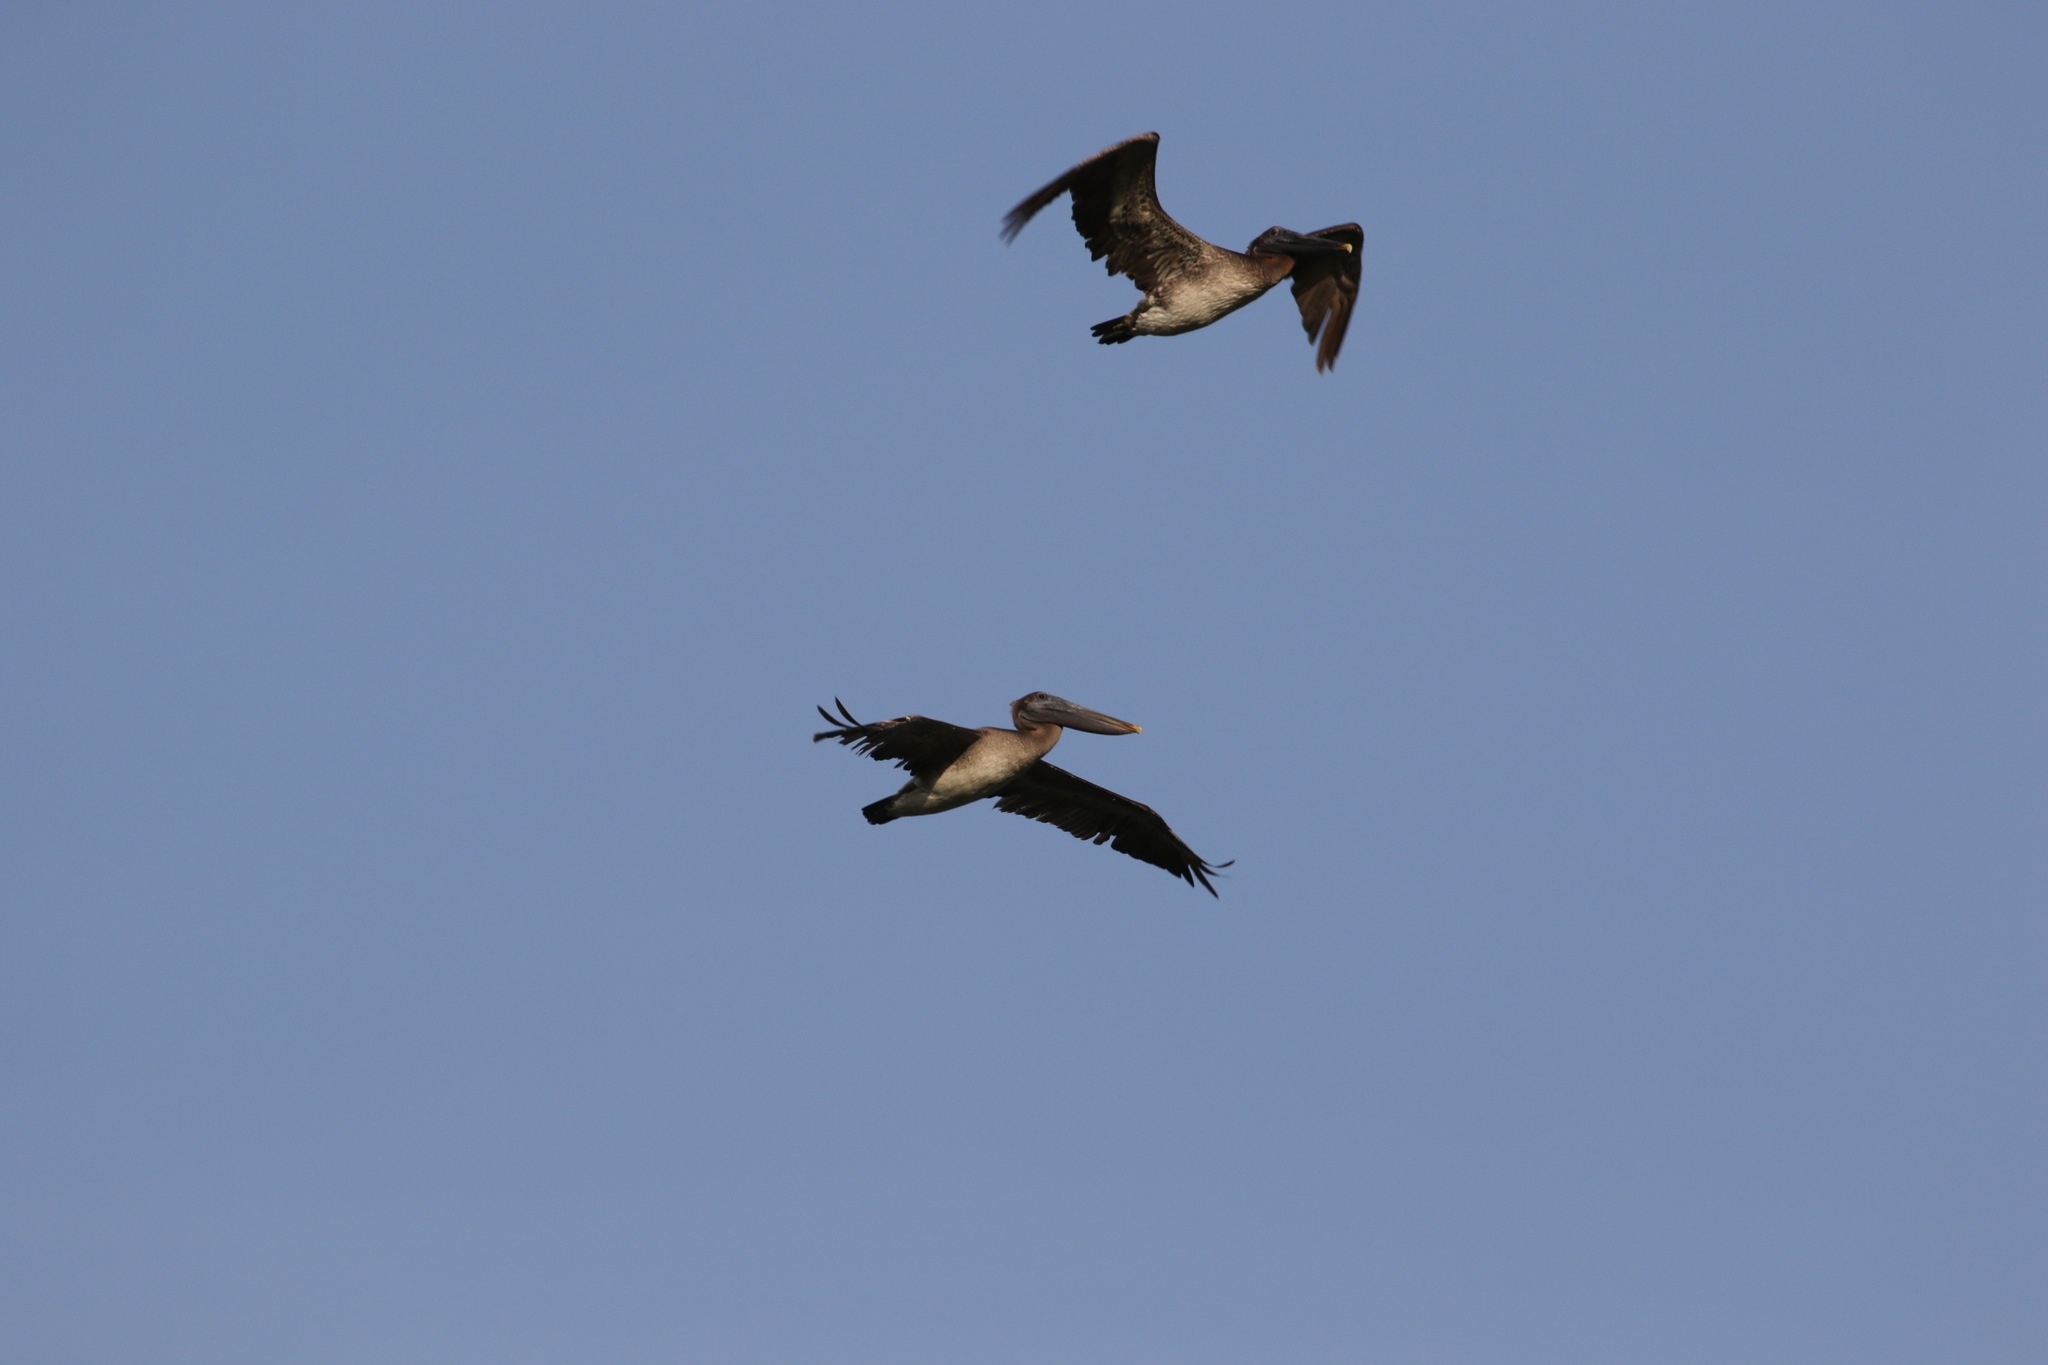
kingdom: Animalia
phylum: Chordata
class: Aves
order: Pelecaniformes
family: Pelecanidae
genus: Pelecanus
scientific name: Pelecanus occidentalis
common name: Brown pelican
